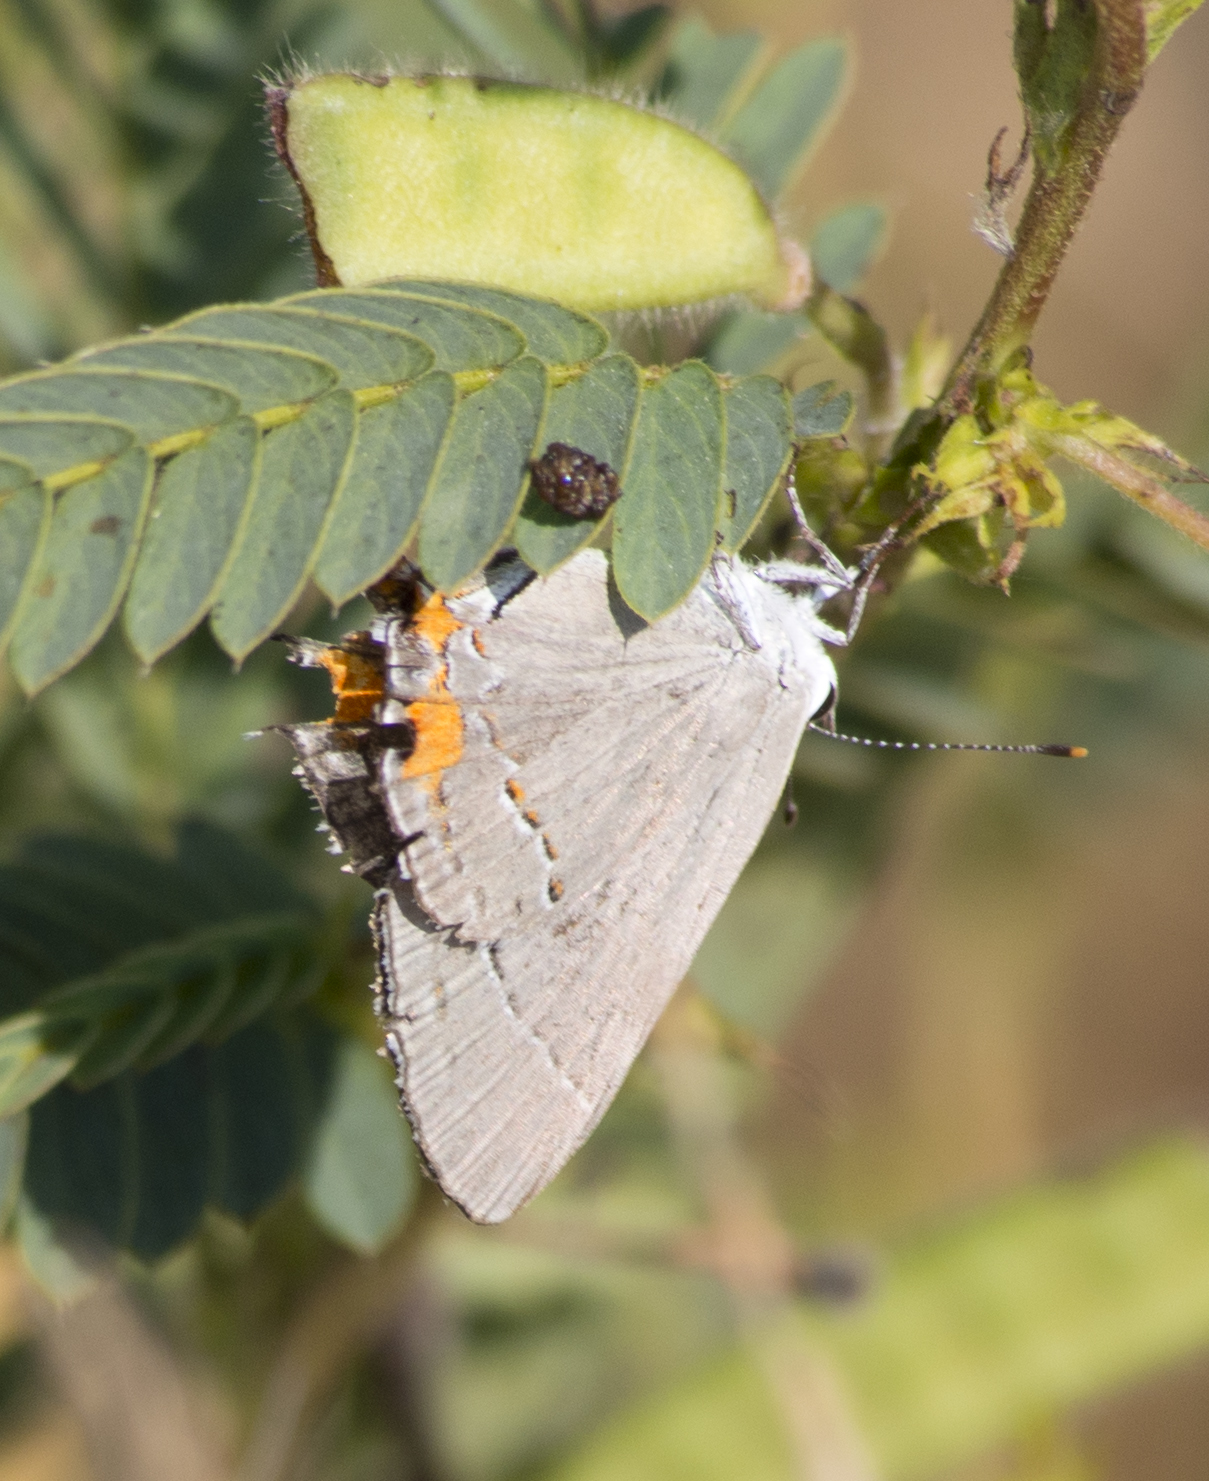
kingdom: Animalia
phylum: Arthropoda
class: Insecta
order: Lepidoptera
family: Lycaenidae
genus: Strymon
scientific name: Strymon melinus
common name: Gray hairstreak
